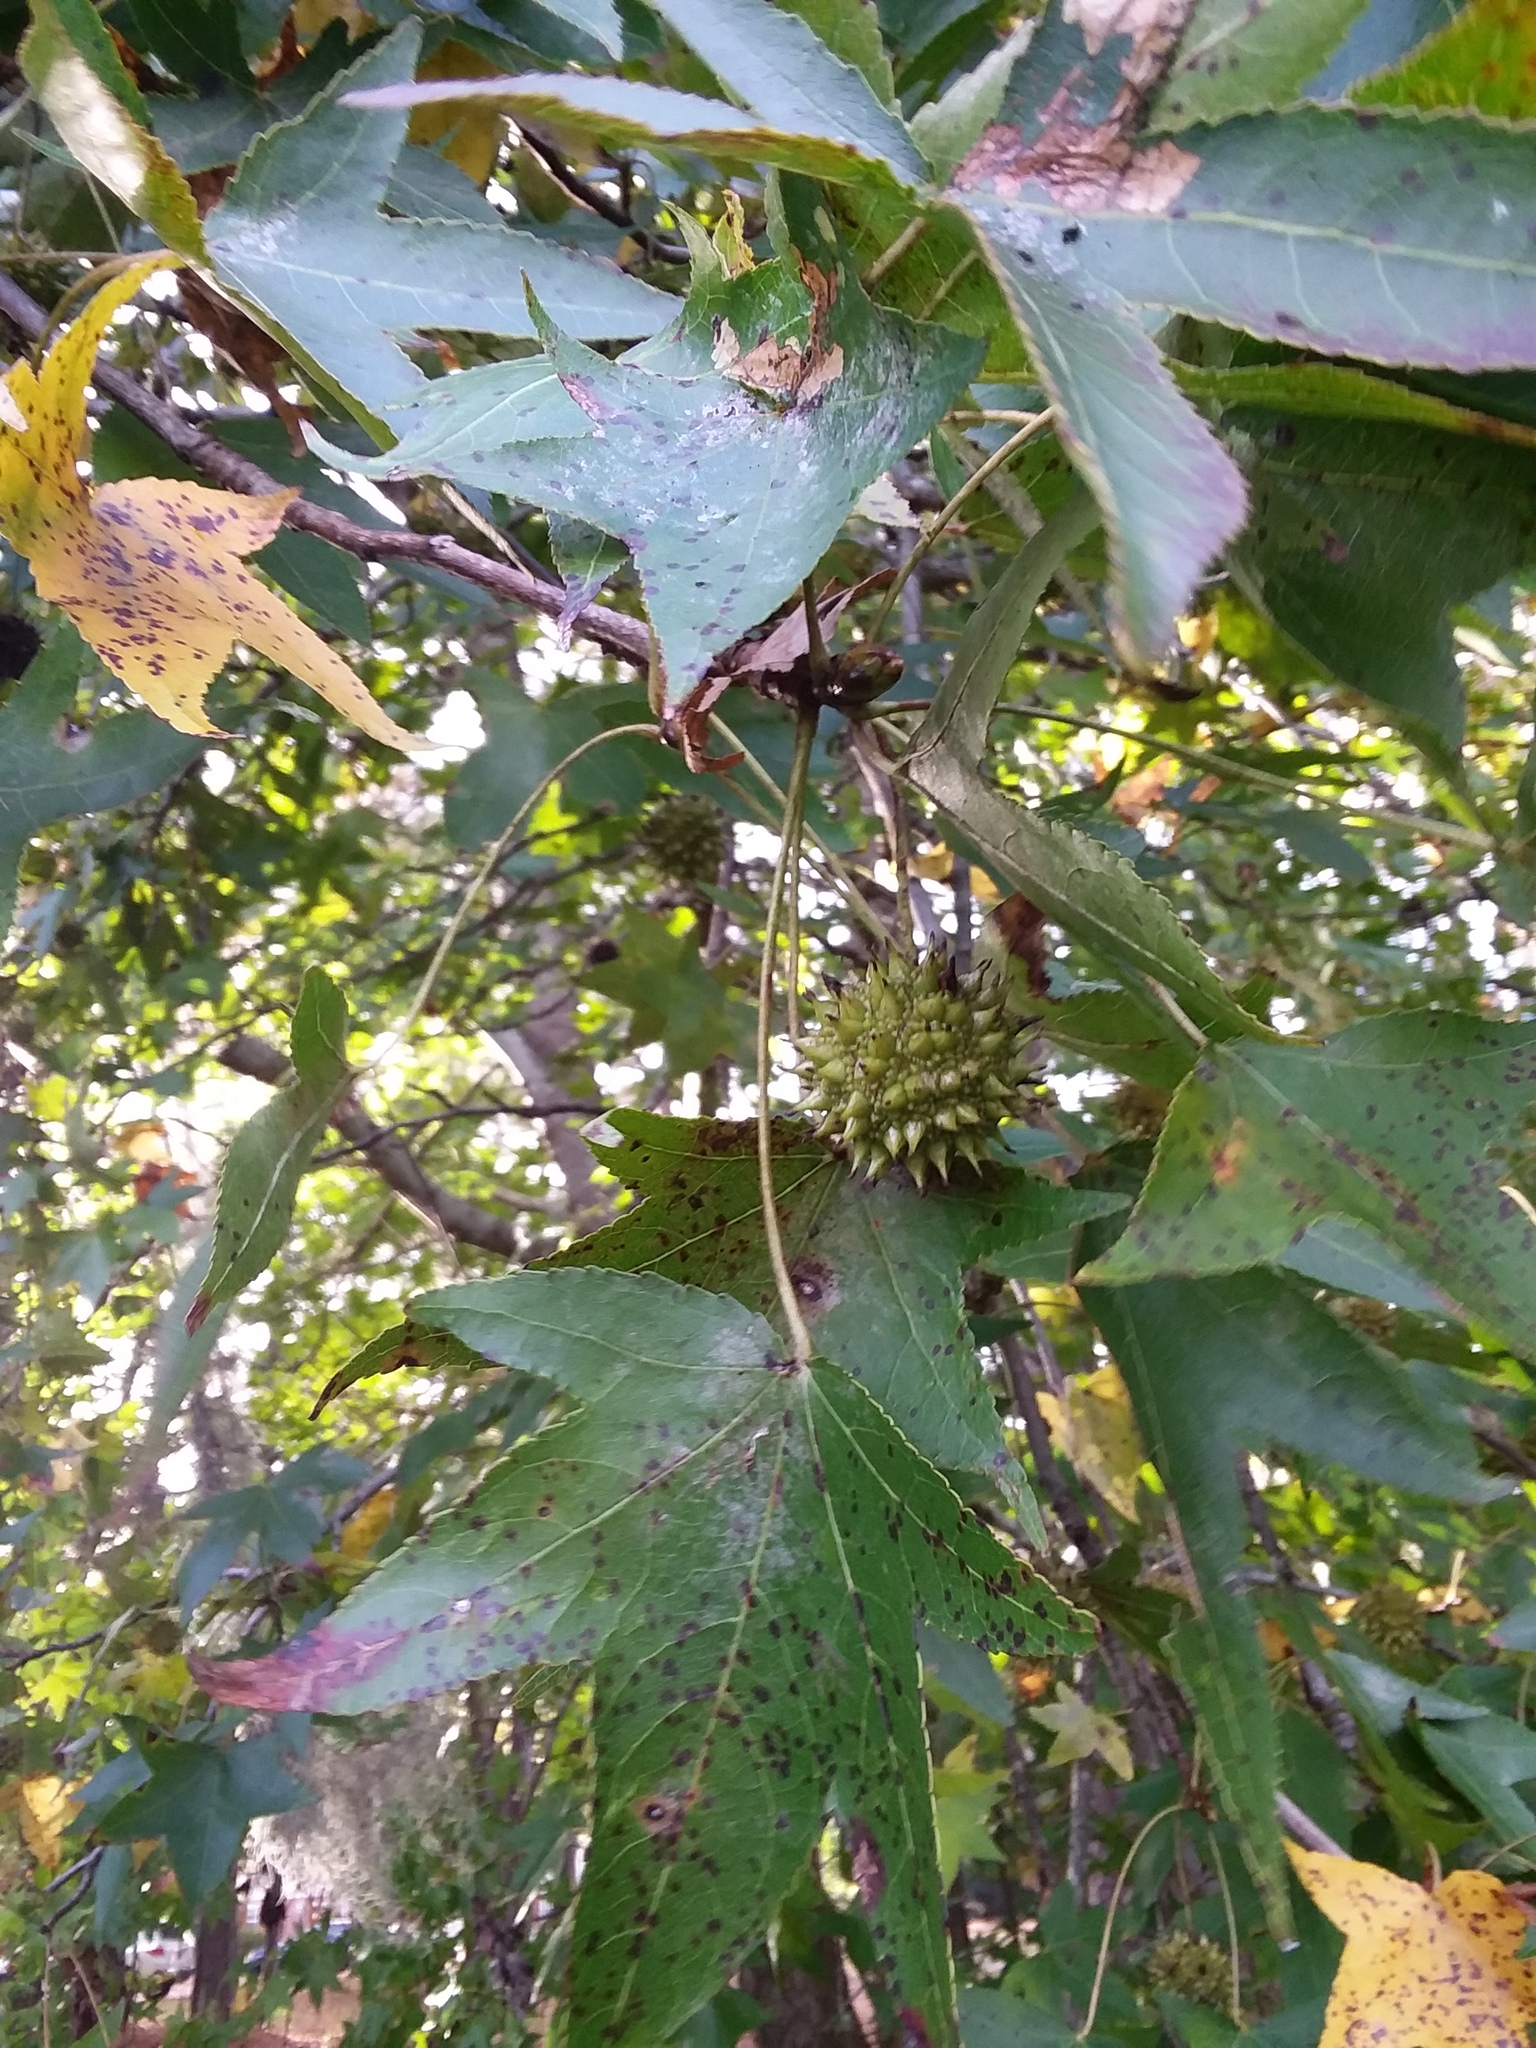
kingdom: Plantae
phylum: Tracheophyta
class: Magnoliopsida
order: Saxifragales
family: Altingiaceae
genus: Liquidambar
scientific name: Liquidambar styraciflua
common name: Sweet gum
